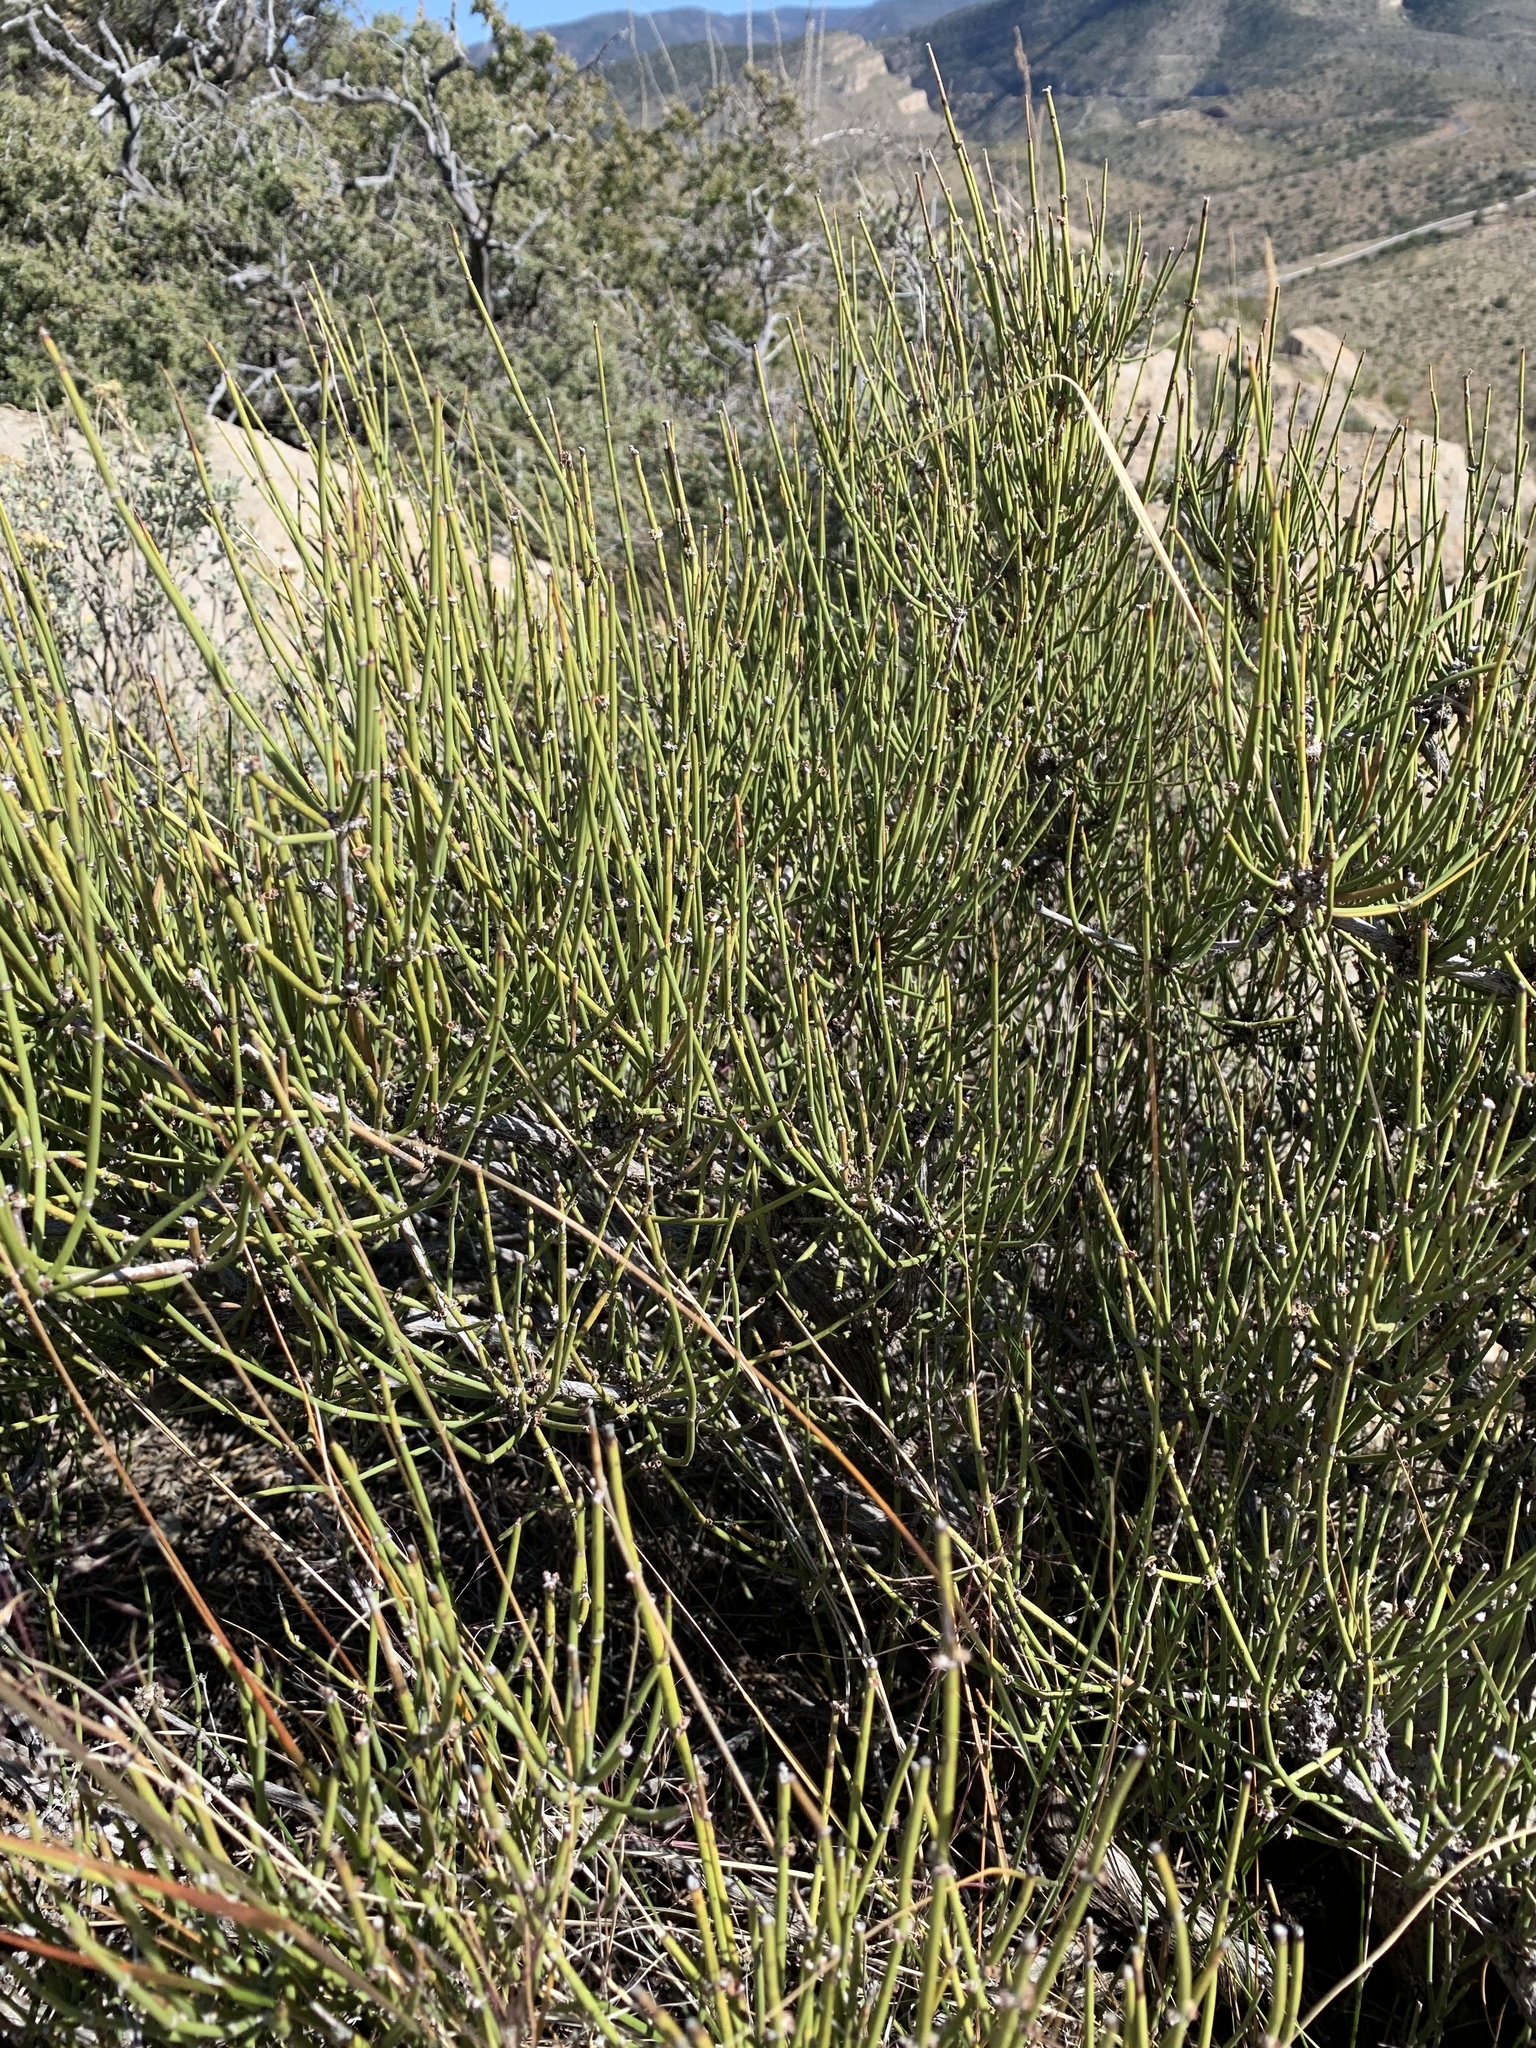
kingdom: Plantae
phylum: Tracheophyta
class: Gnetopsida
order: Ephedrales
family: Ephedraceae
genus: Ephedra
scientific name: Ephedra trifurca
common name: Mexican-tea
